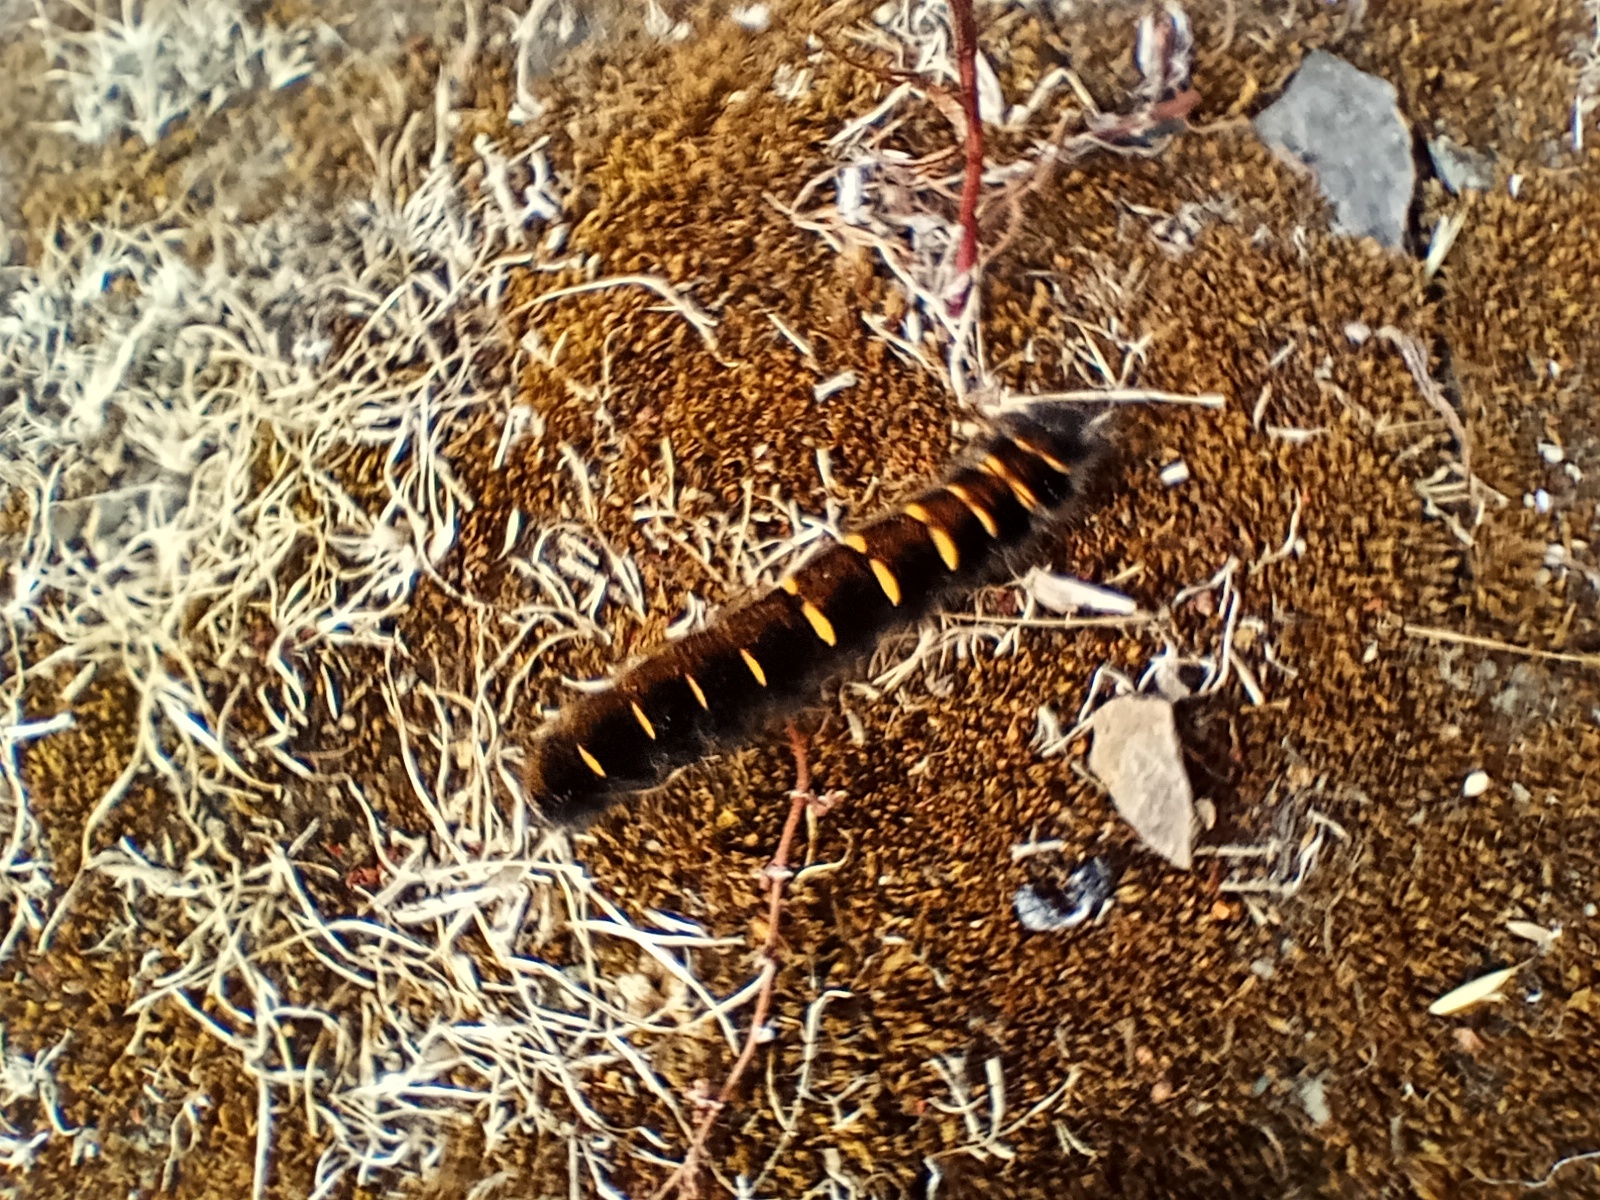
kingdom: Animalia
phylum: Arthropoda
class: Insecta
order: Lepidoptera
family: Lasiocampidae
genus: Macrothylacia
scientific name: Macrothylacia rubi
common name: Fox moth
